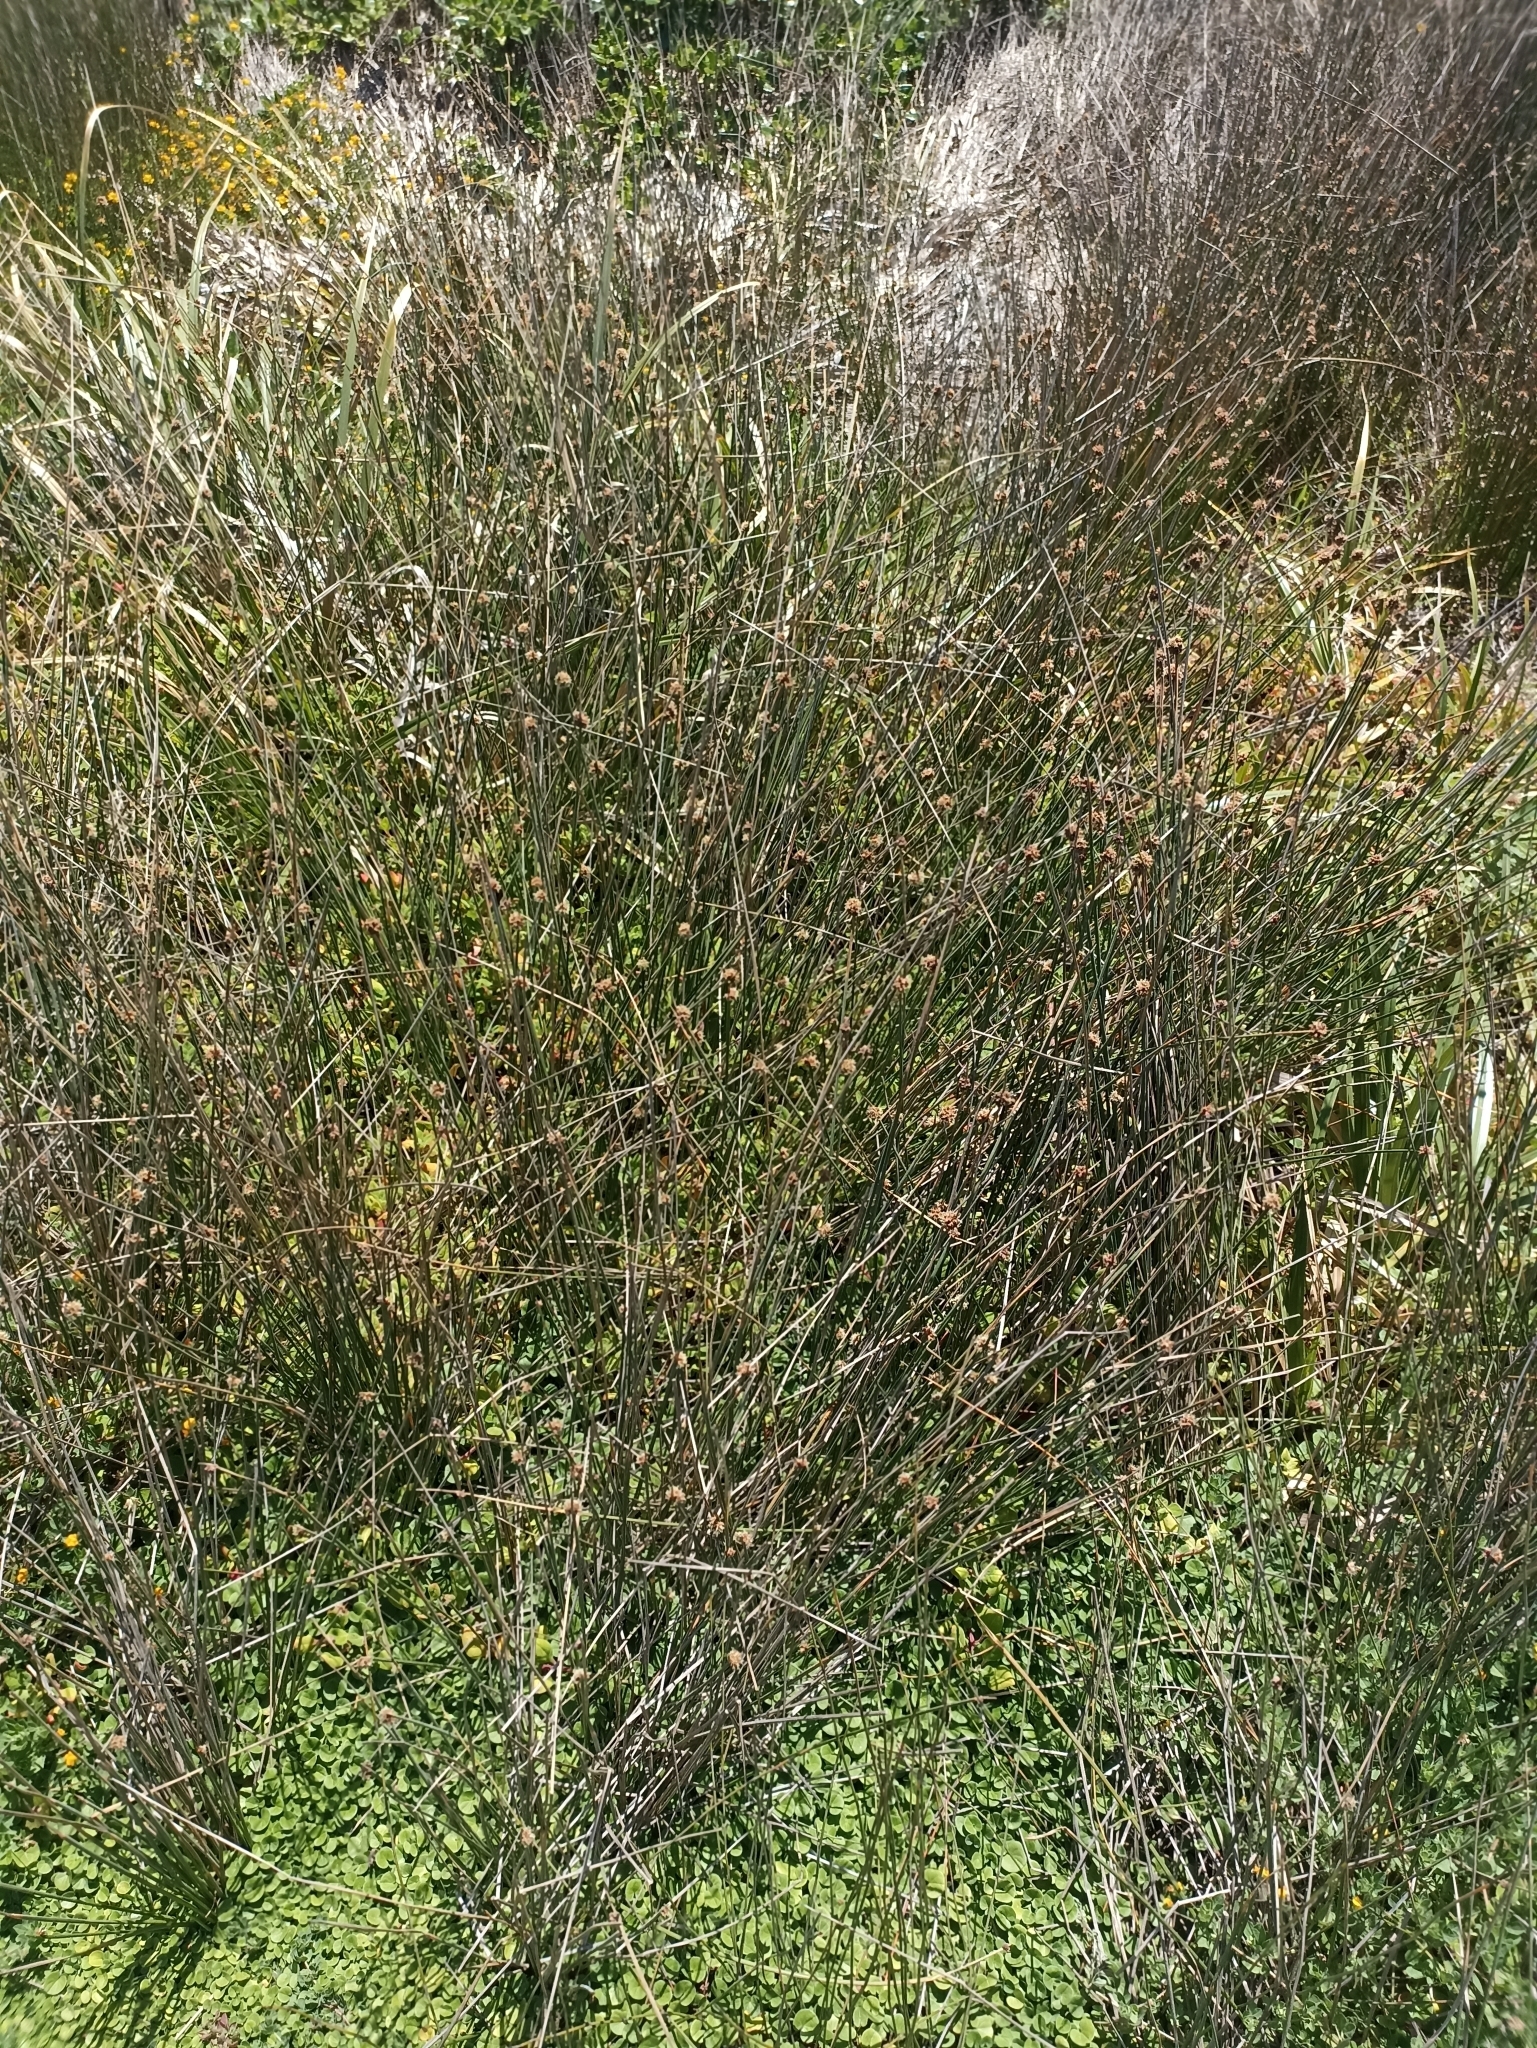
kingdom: Plantae
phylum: Tracheophyta
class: Liliopsida
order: Poales
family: Cyperaceae
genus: Ficinia
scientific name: Ficinia nodosa
